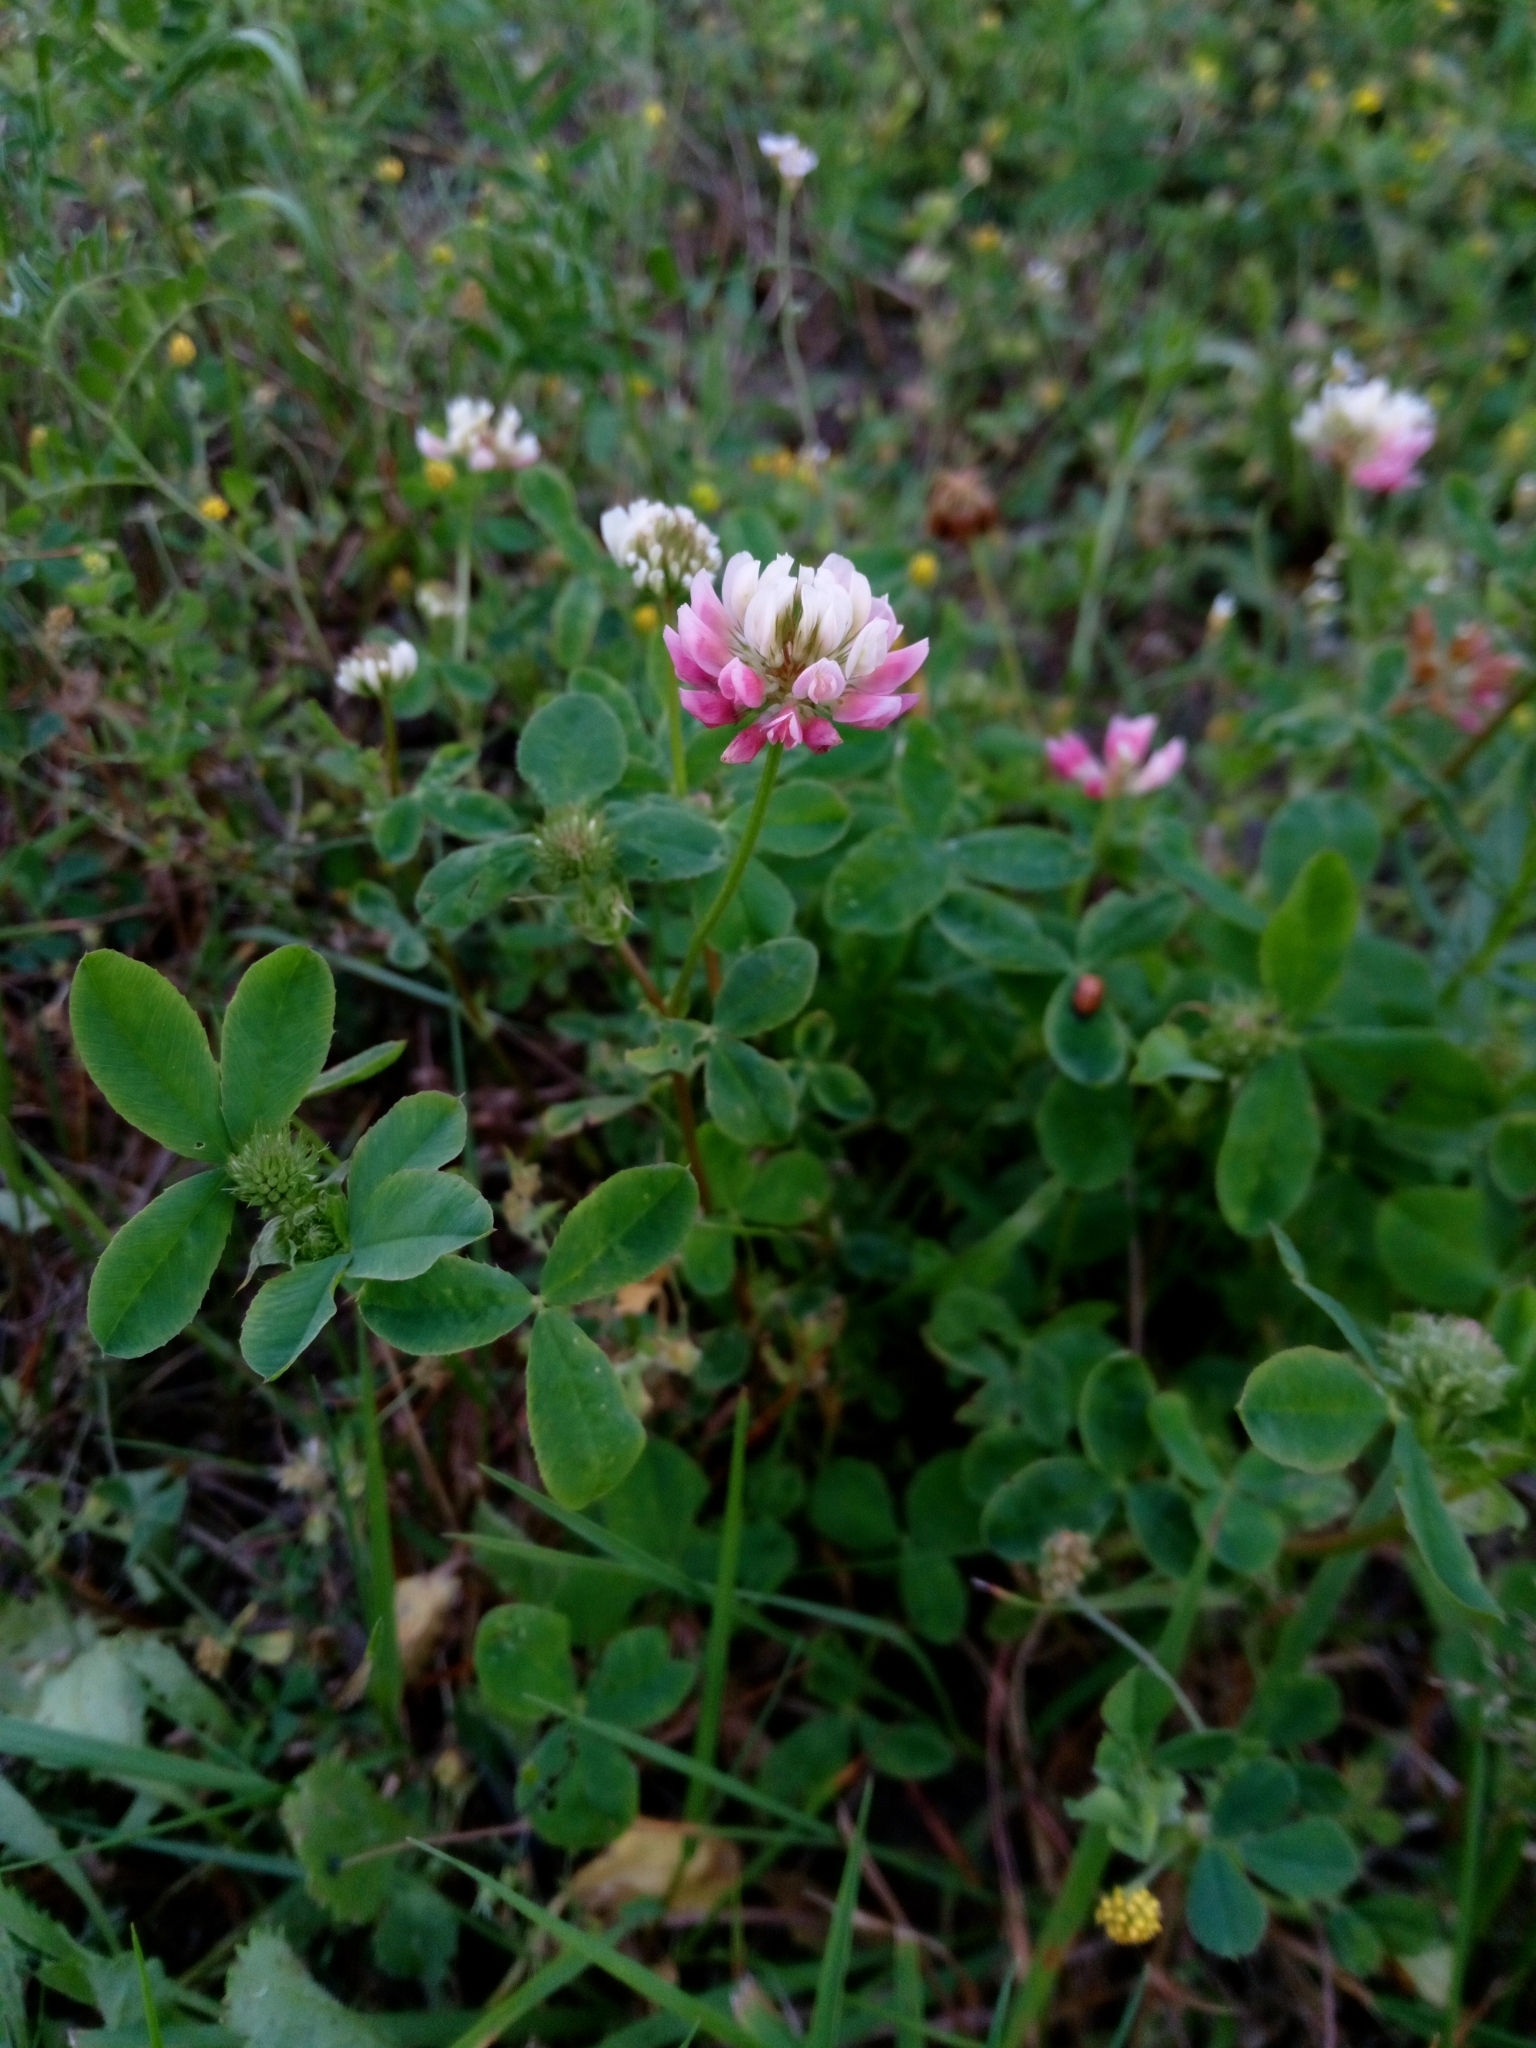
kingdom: Plantae
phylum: Tracheophyta
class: Magnoliopsida
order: Fabales
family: Fabaceae
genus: Trifolium
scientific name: Trifolium hybridum
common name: Alsike clover
